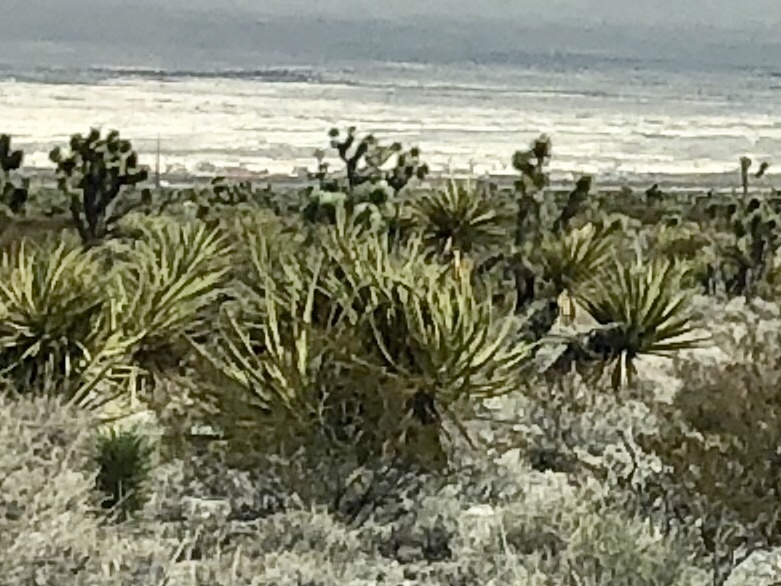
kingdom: Plantae
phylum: Tracheophyta
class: Liliopsida
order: Asparagales
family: Asparagaceae
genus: Yucca
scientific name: Yucca schidigera
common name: Mojave yucca
